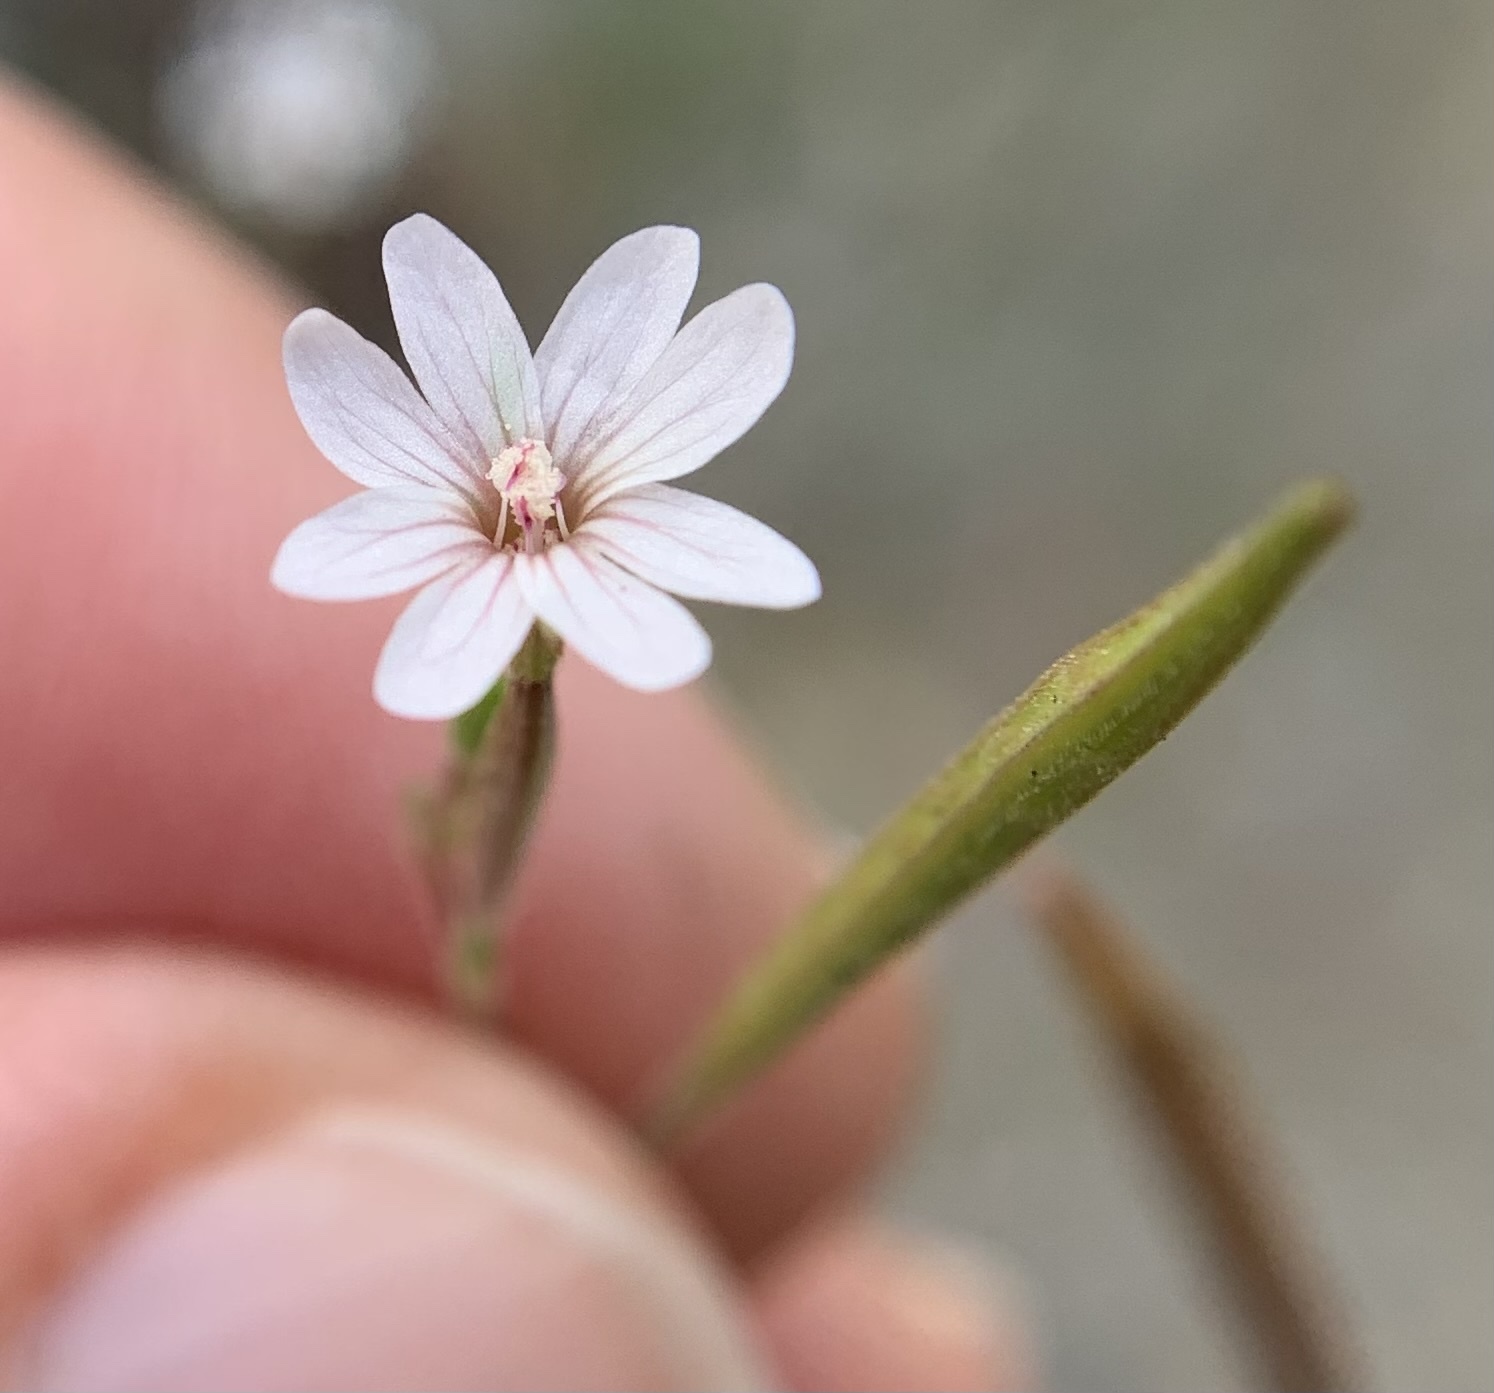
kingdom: Plantae
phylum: Tracheophyta
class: Magnoliopsida
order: Myrtales
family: Onagraceae
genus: Epilobium
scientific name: Epilobium brachycarpum
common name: Annual willowherb
